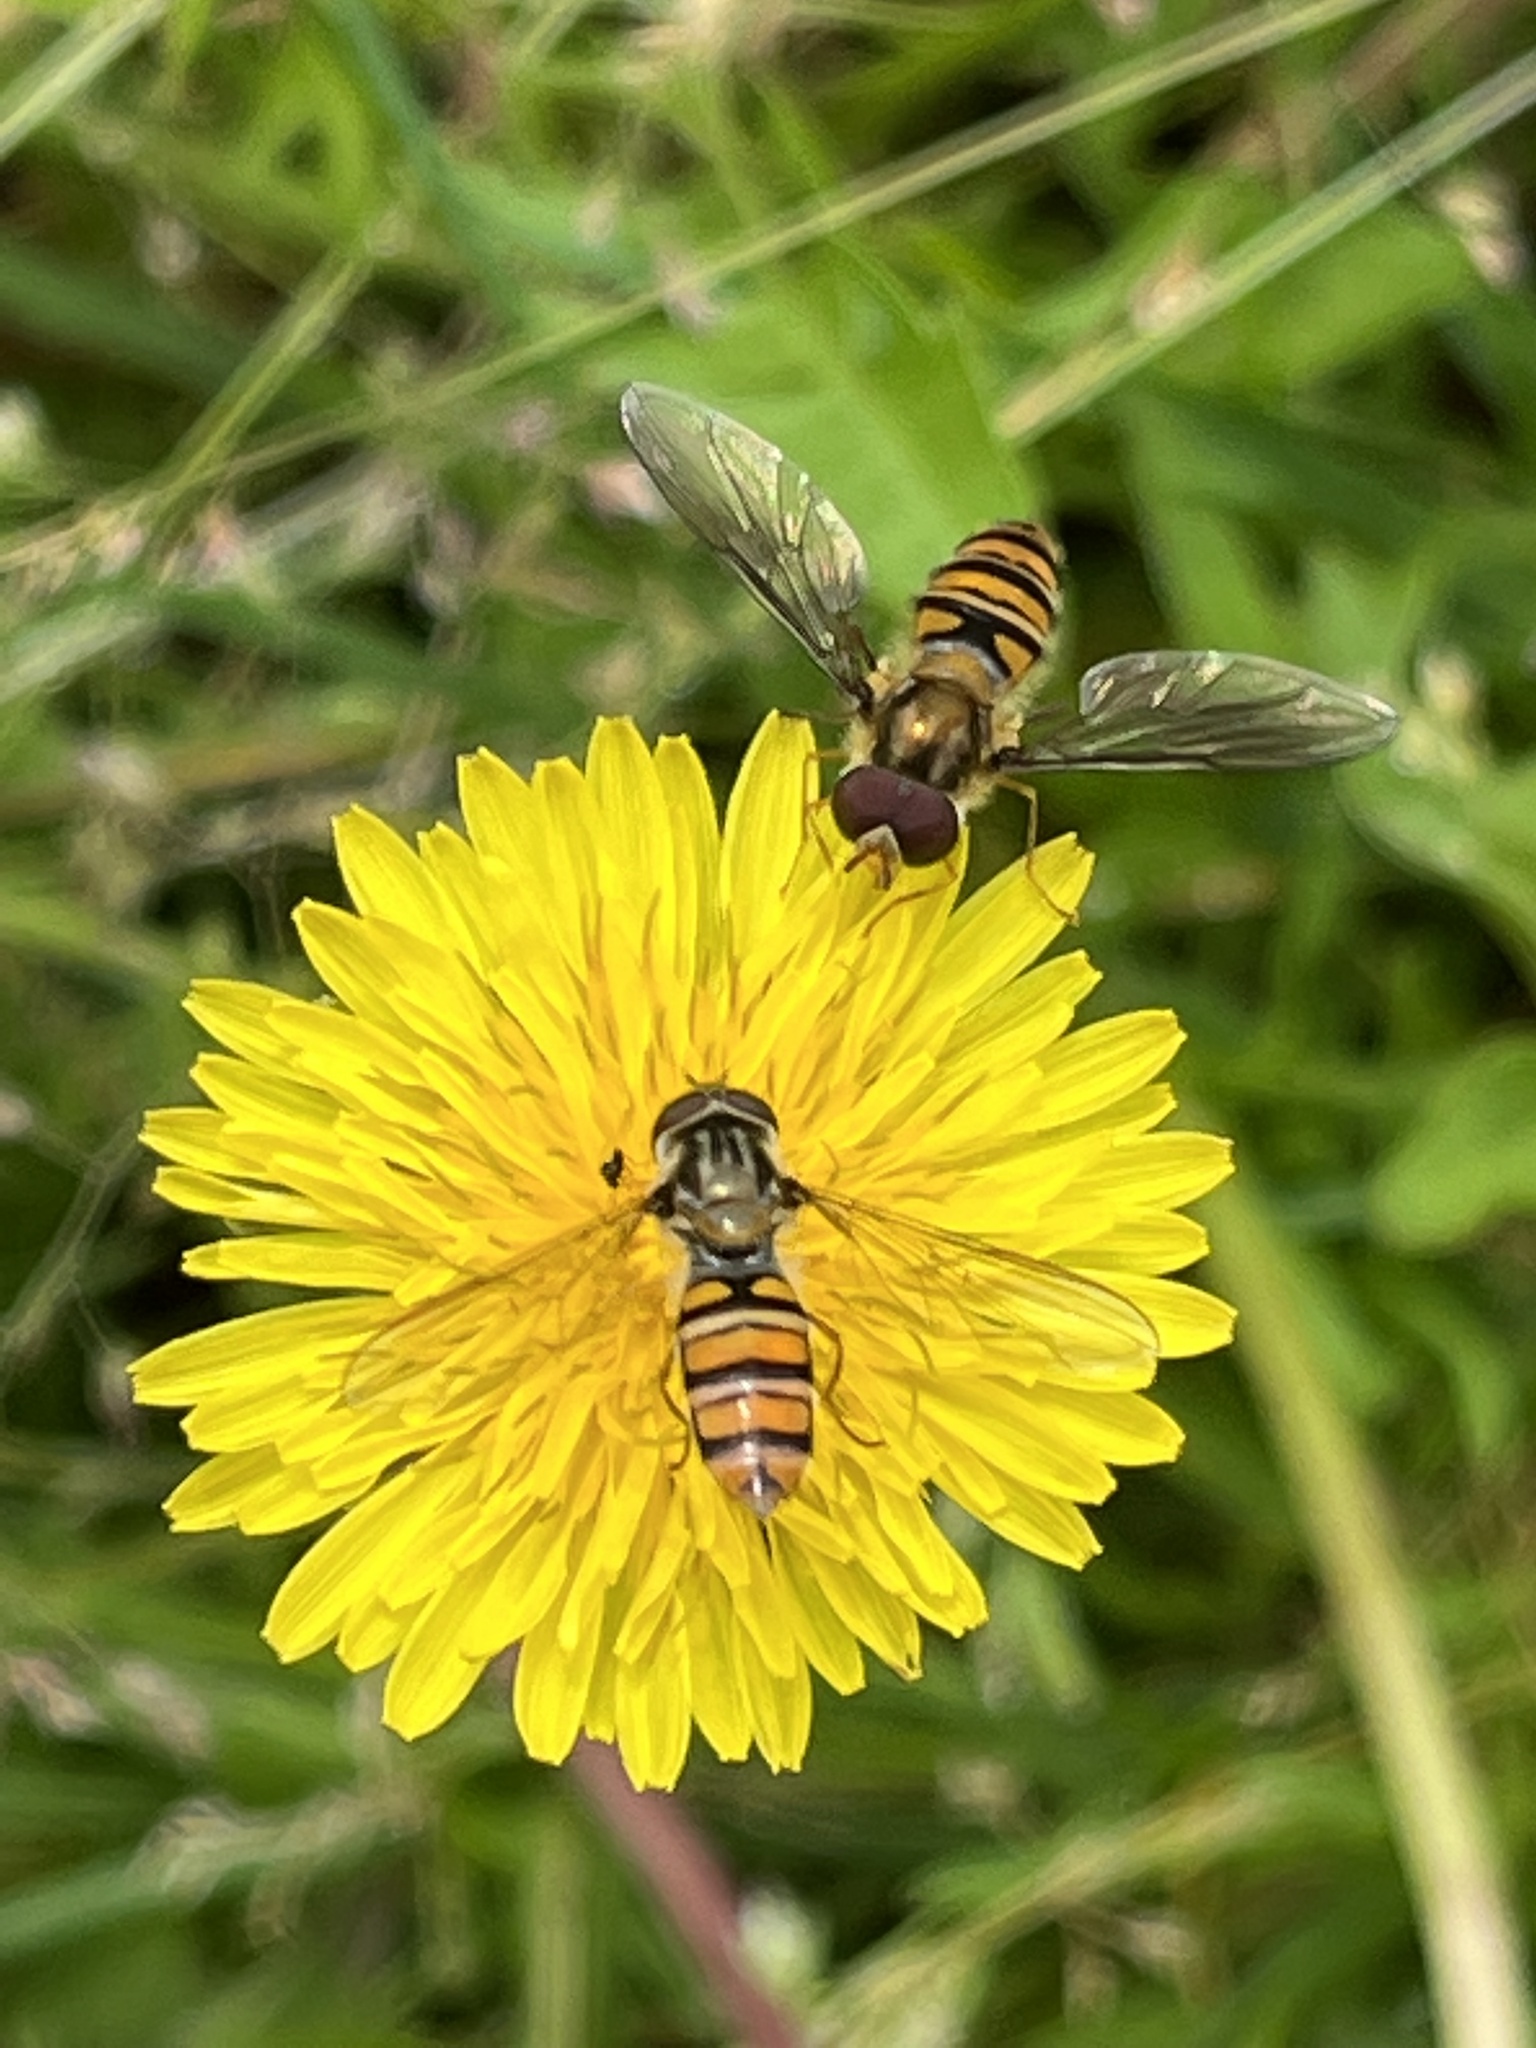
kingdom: Animalia
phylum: Arthropoda
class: Insecta
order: Diptera
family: Syrphidae
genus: Episyrphus
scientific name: Episyrphus balteatus
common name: Marmalade hoverfly
